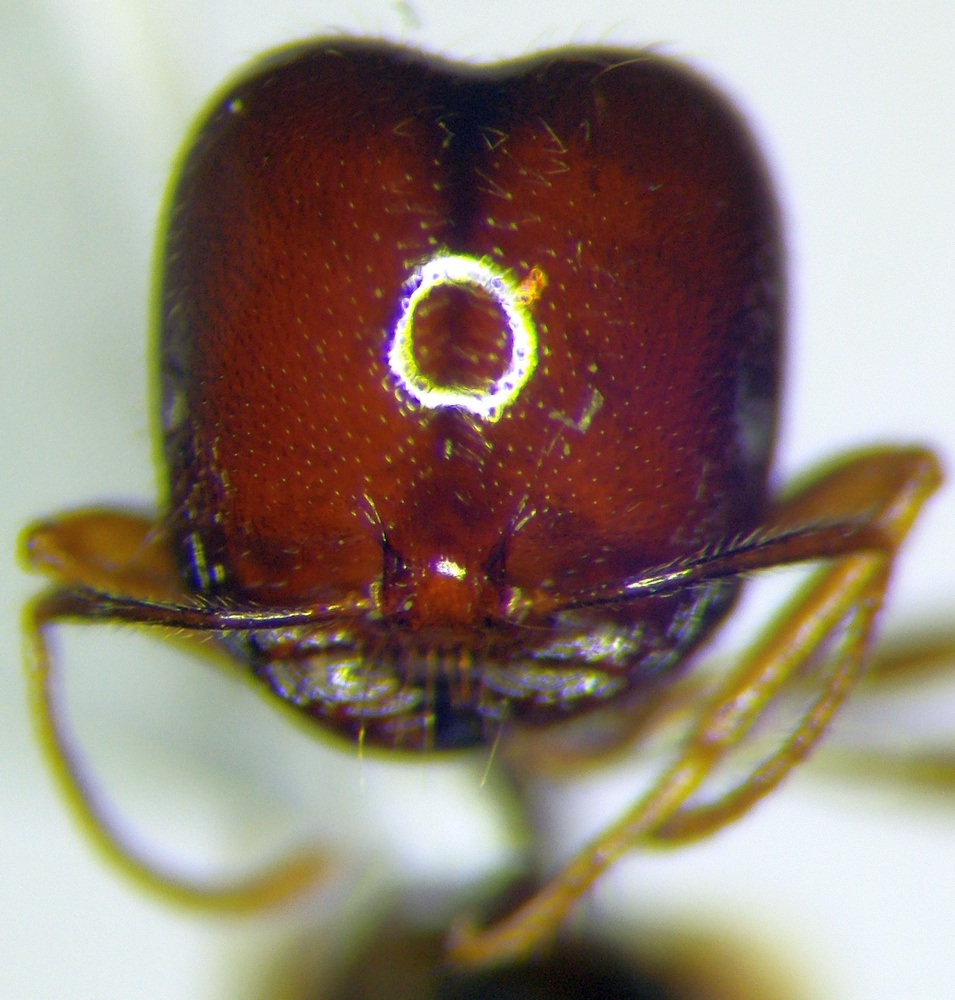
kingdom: Animalia
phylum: Arthropoda
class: Insecta
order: Hymenoptera
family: Formicidae
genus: Monomorium
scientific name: Monomorium perplexum
